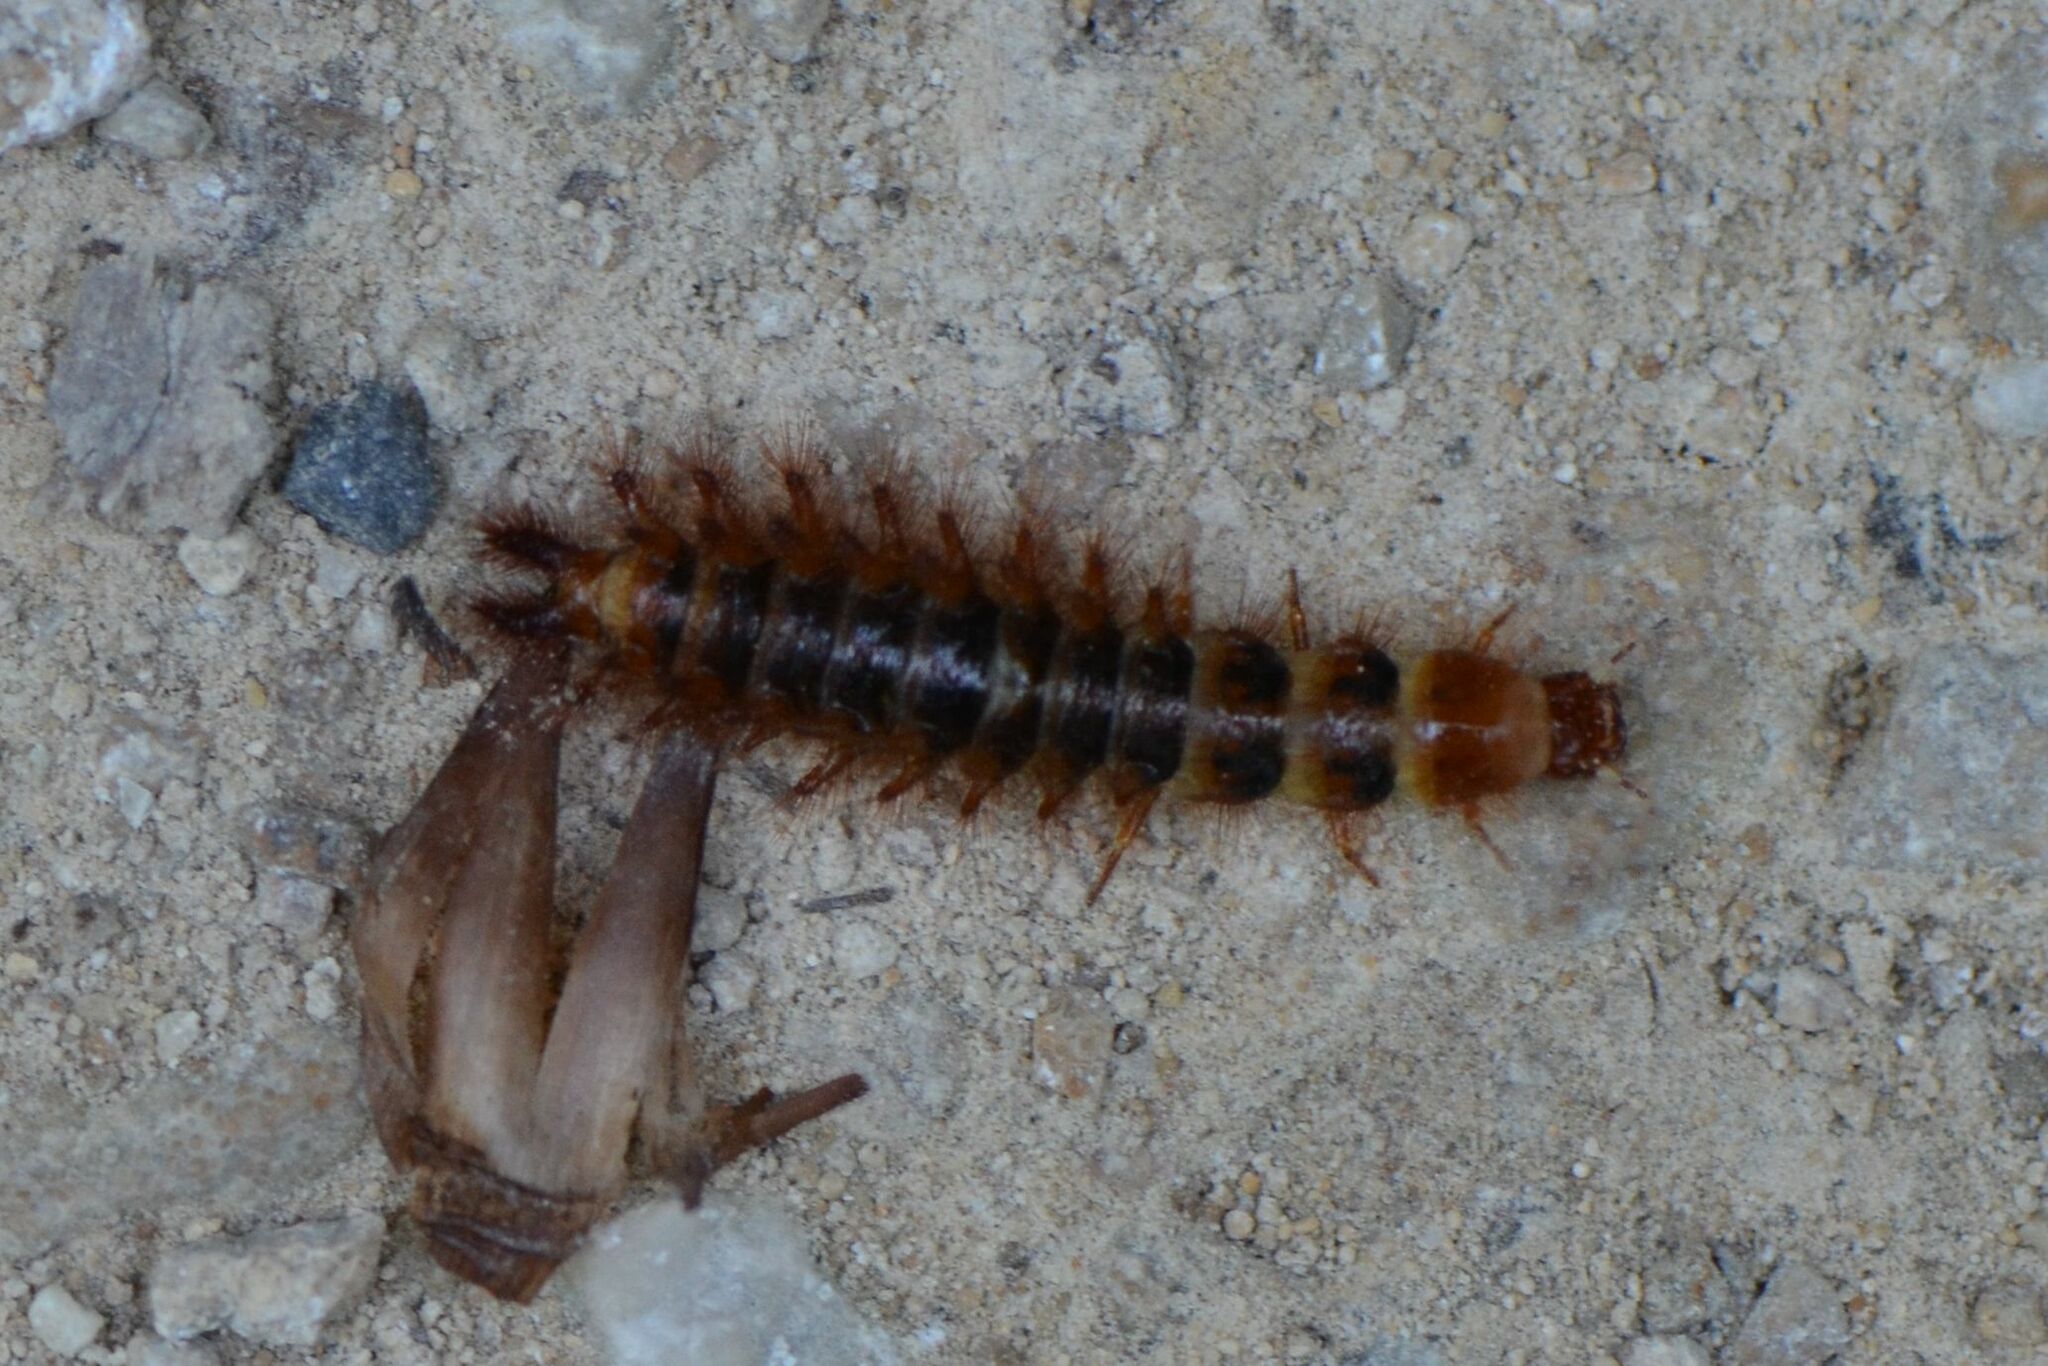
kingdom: Animalia
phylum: Arthropoda
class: Insecta
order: Coleoptera
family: Drilidae
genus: Drilus
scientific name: Drilus flavescens
